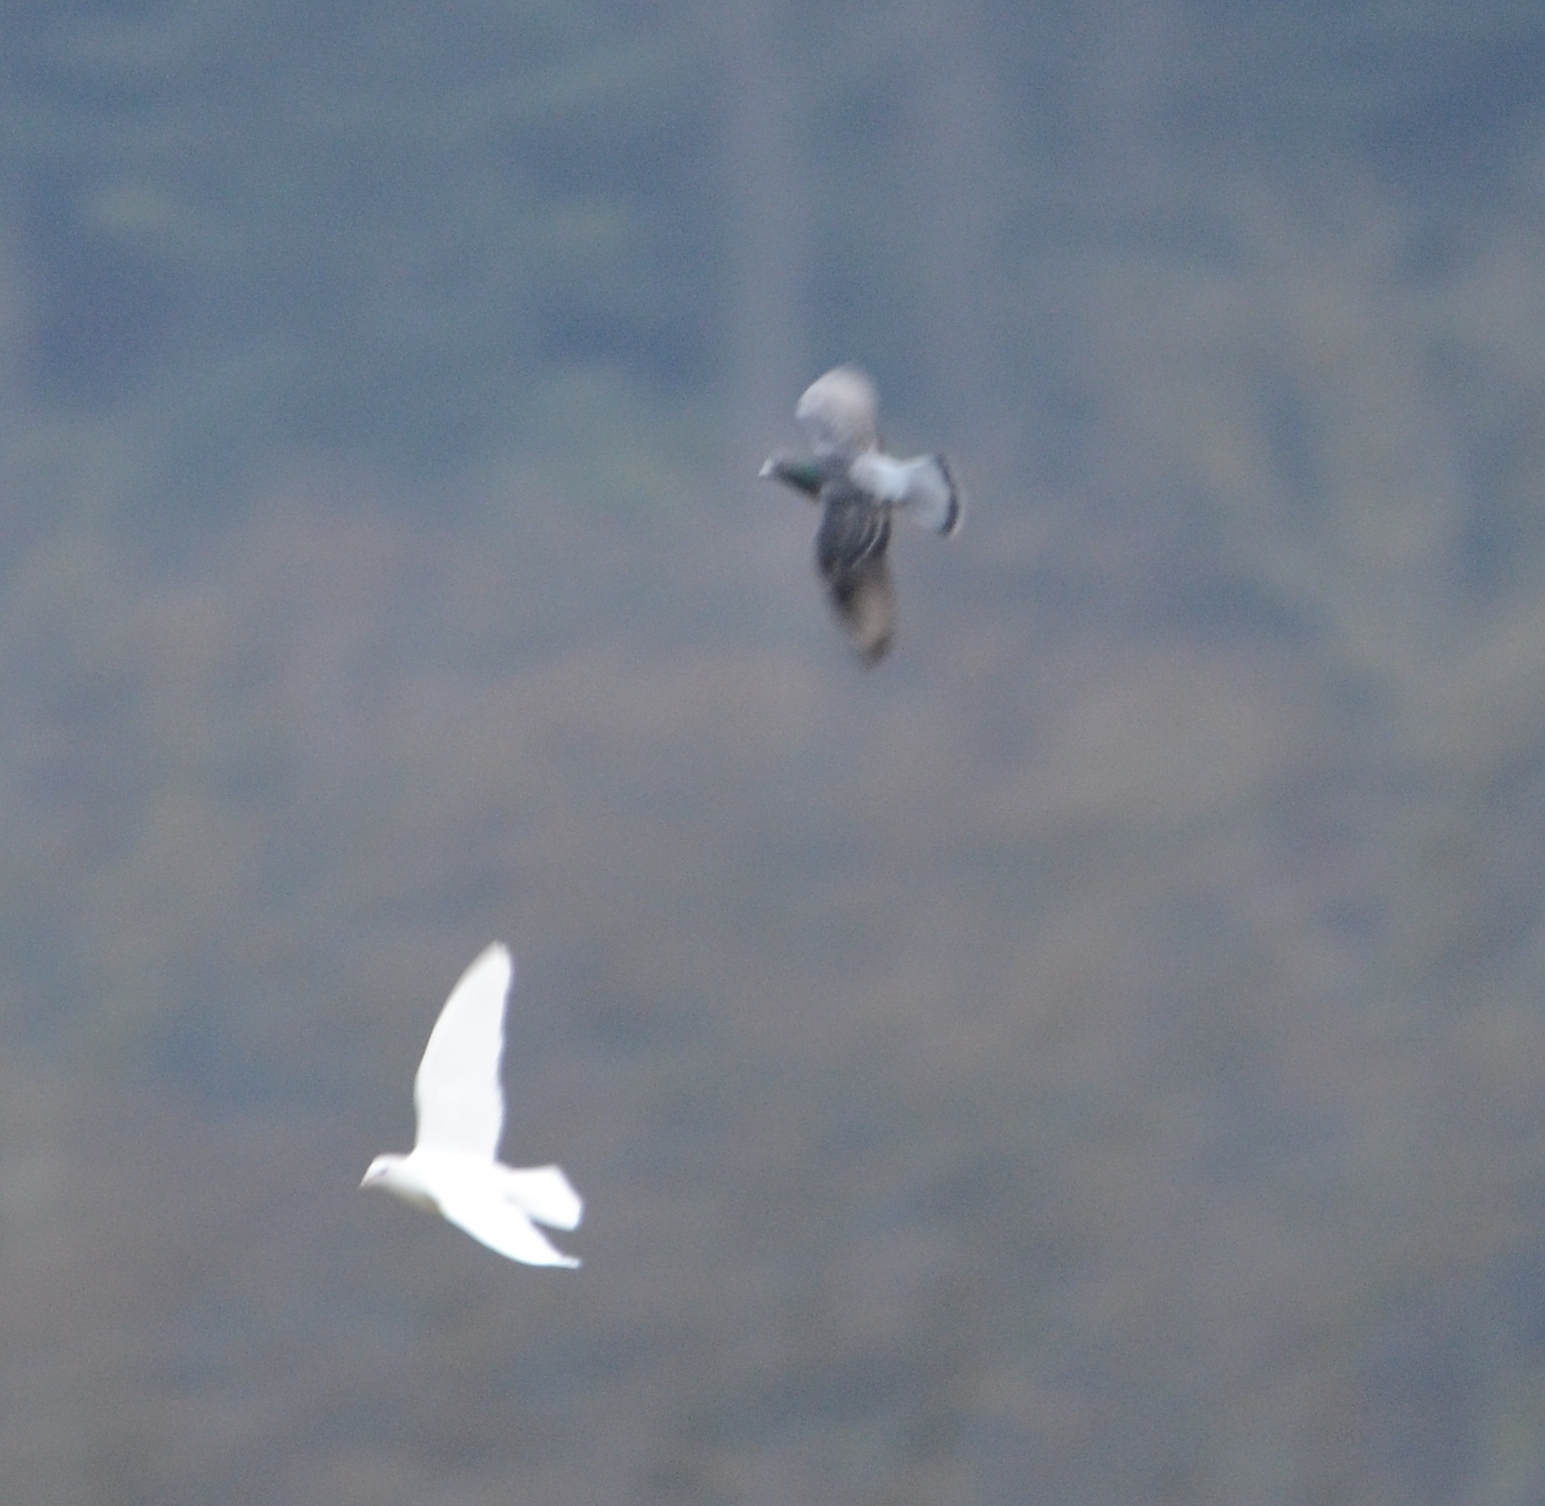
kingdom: Animalia
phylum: Chordata
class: Aves
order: Columbiformes
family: Columbidae
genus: Columba
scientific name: Columba livia
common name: Rock pigeon
